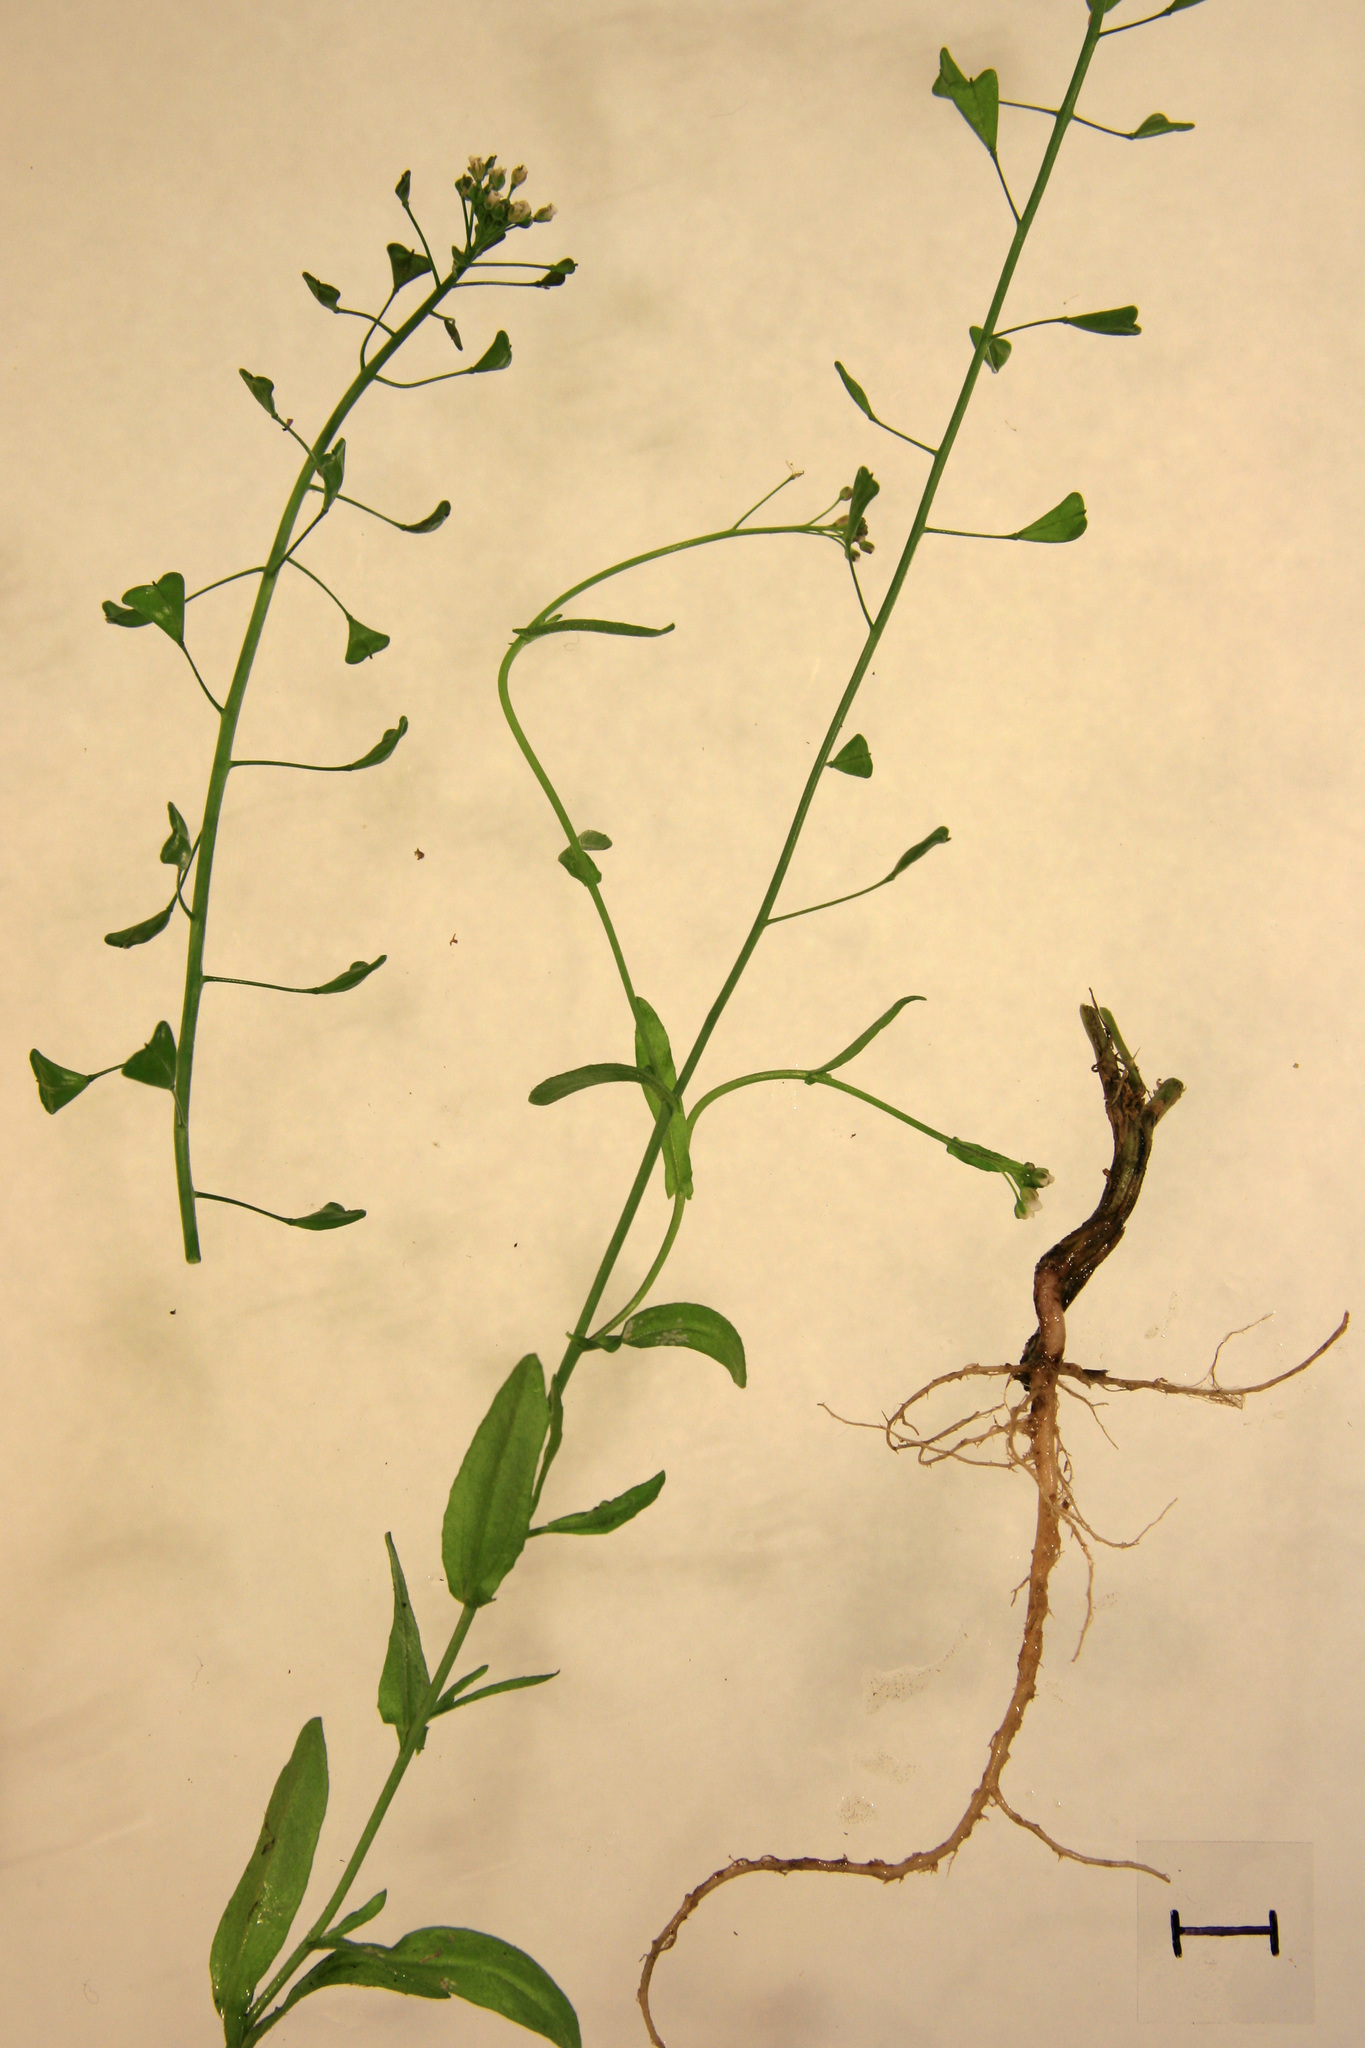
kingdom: Plantae
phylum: Tracheophyta
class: Magnoliopsida
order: Brassicales
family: Brassicaceae
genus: Capsella
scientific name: Capsella bursa-pastoris
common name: Shepherd's purse
